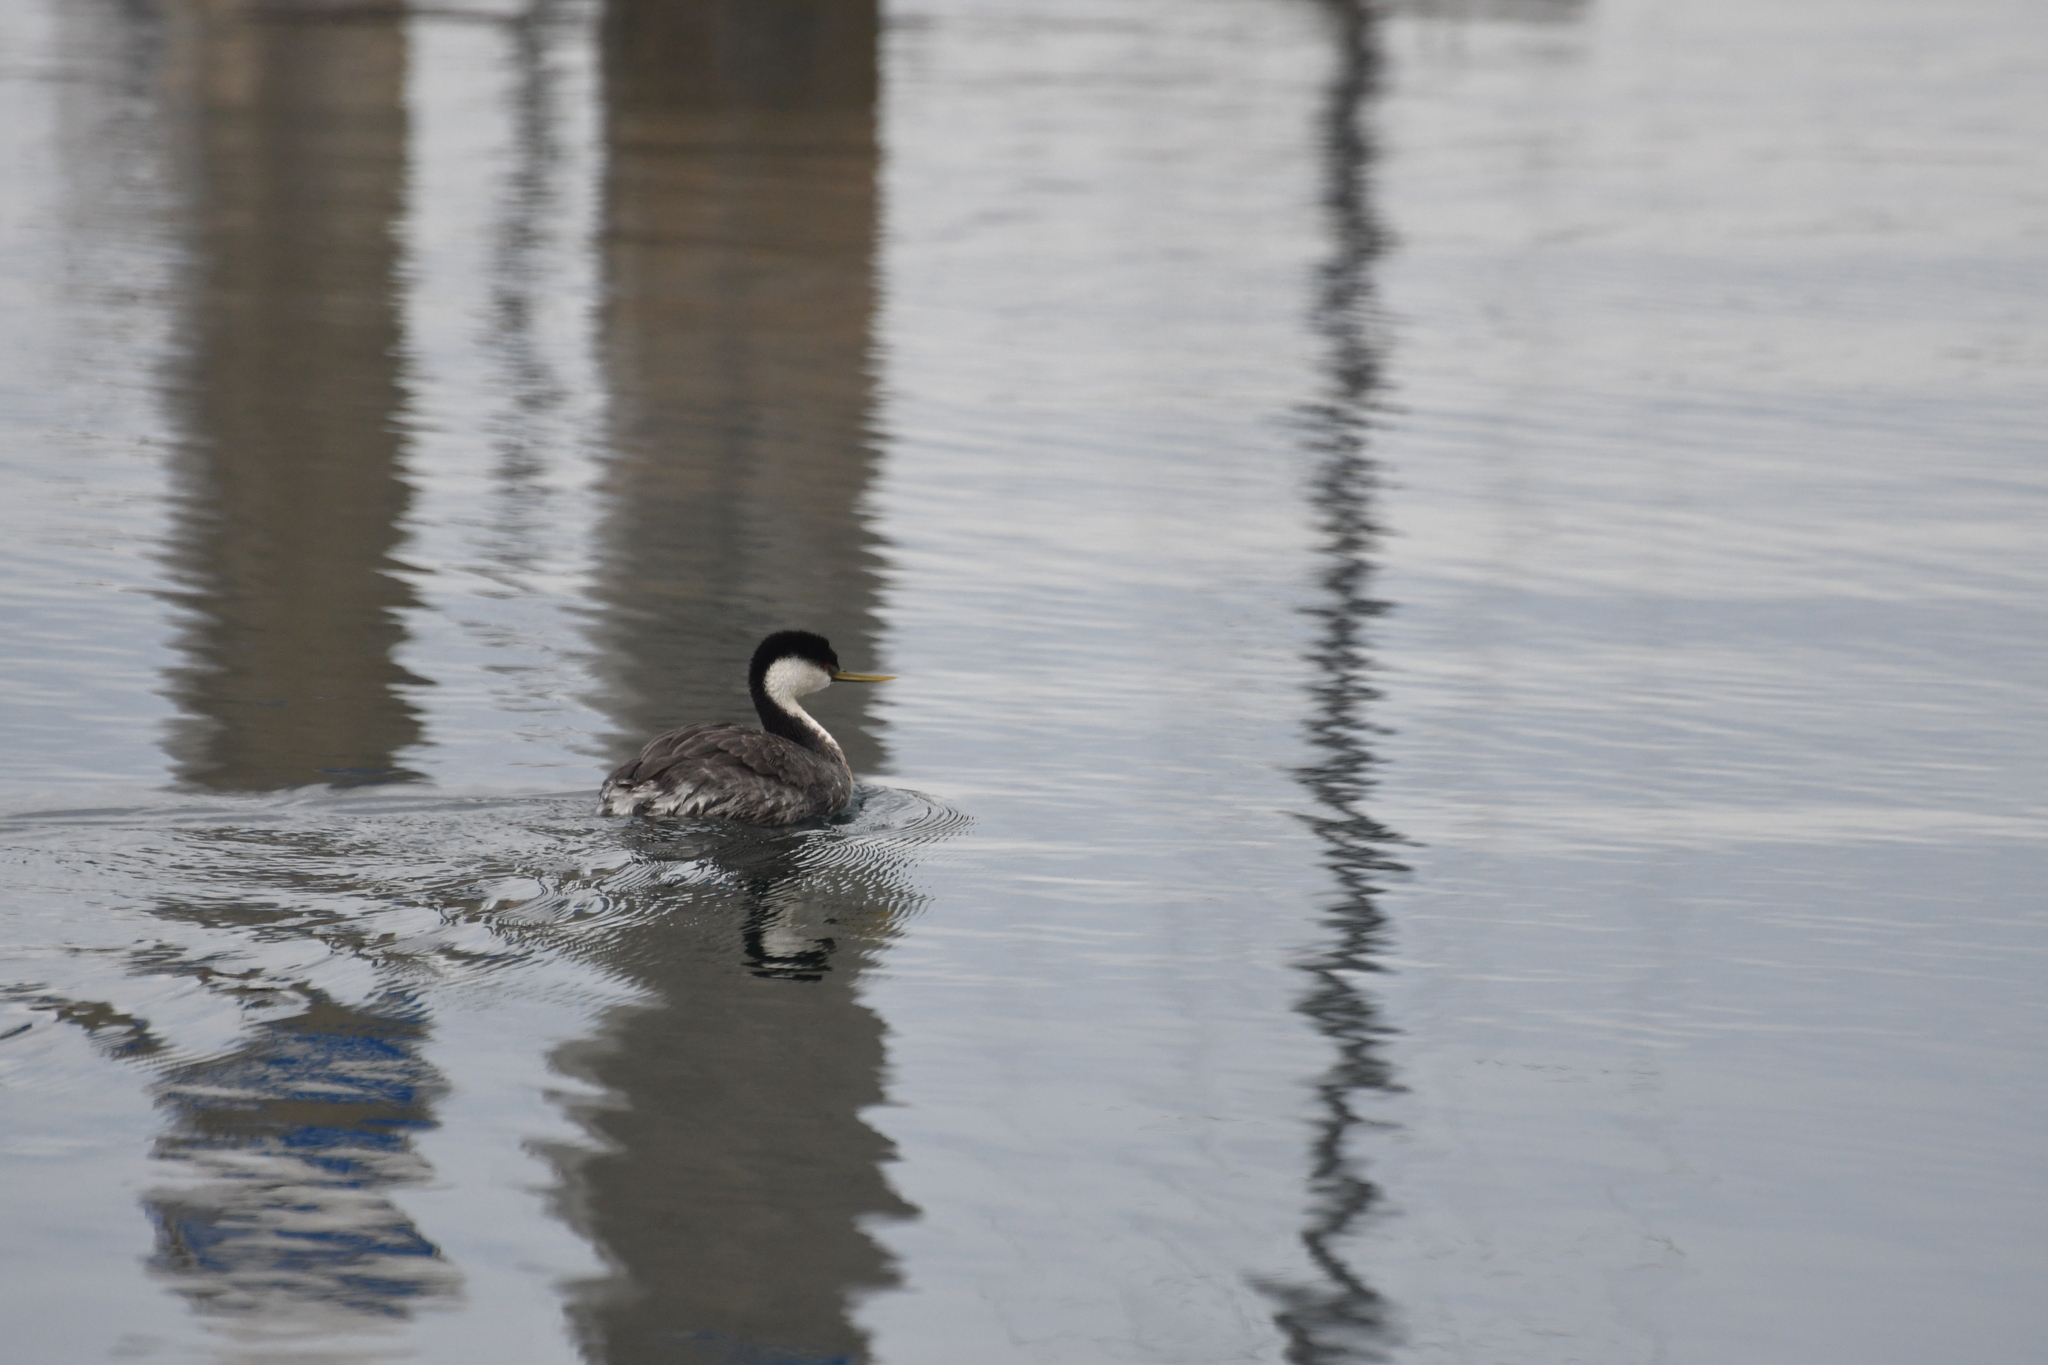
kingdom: Animalia
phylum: Chordata
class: Aves
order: Podicipediformes
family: Podicipedidae
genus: Aechmophorus
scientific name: Aechmophorus occidentalis
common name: Western grebe
